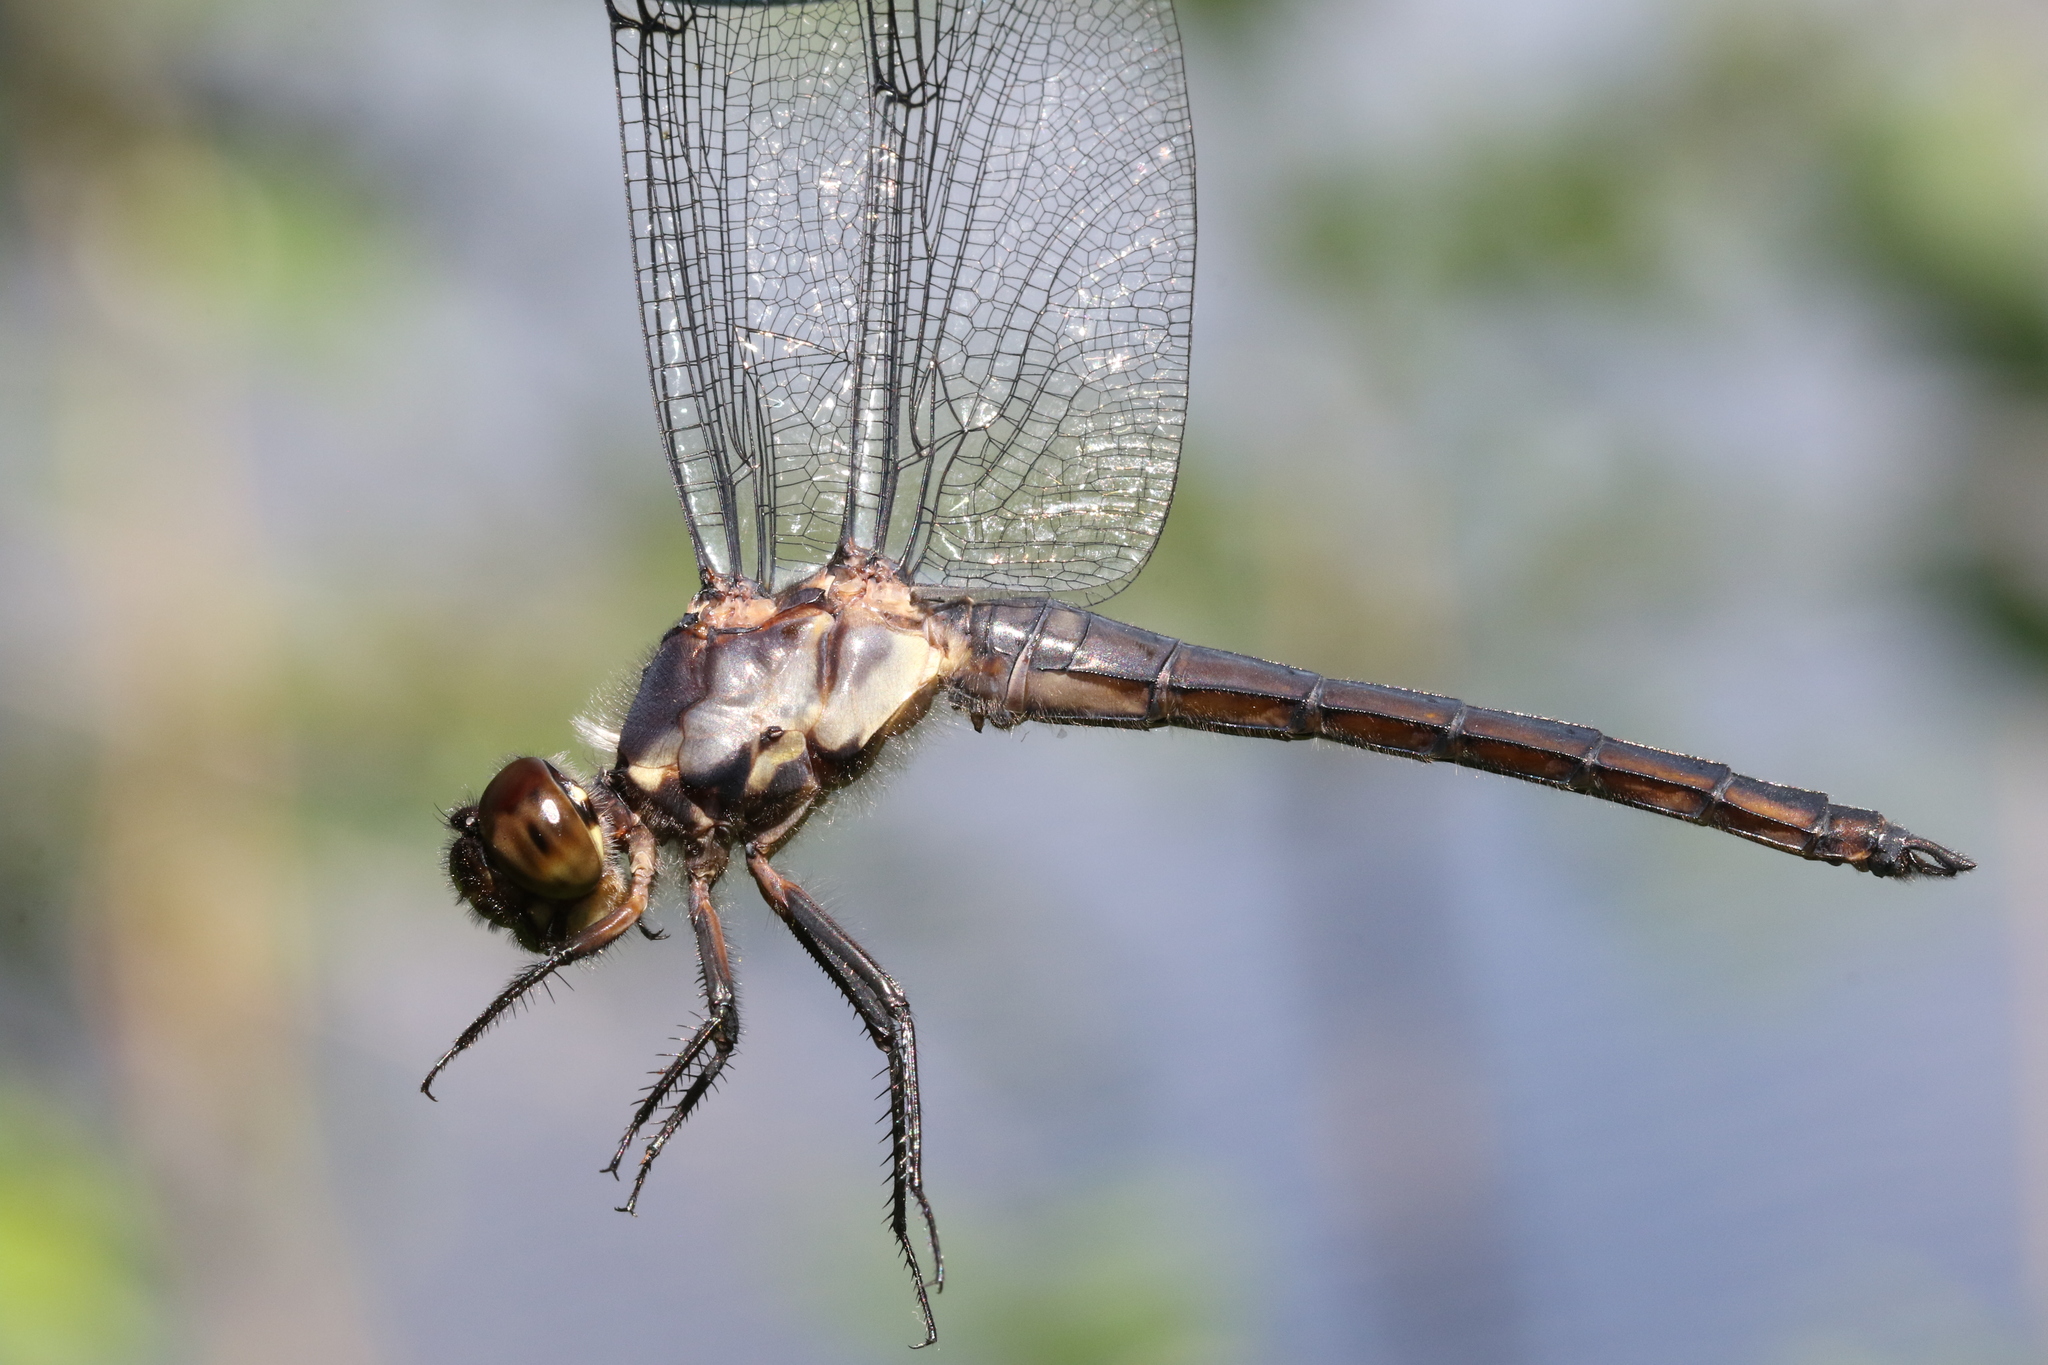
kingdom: Animalia
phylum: Arthropoda
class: Insecta
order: Odonata
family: Libellulidae
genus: Libellula
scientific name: Libellula incesta
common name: Slaty skimmer
